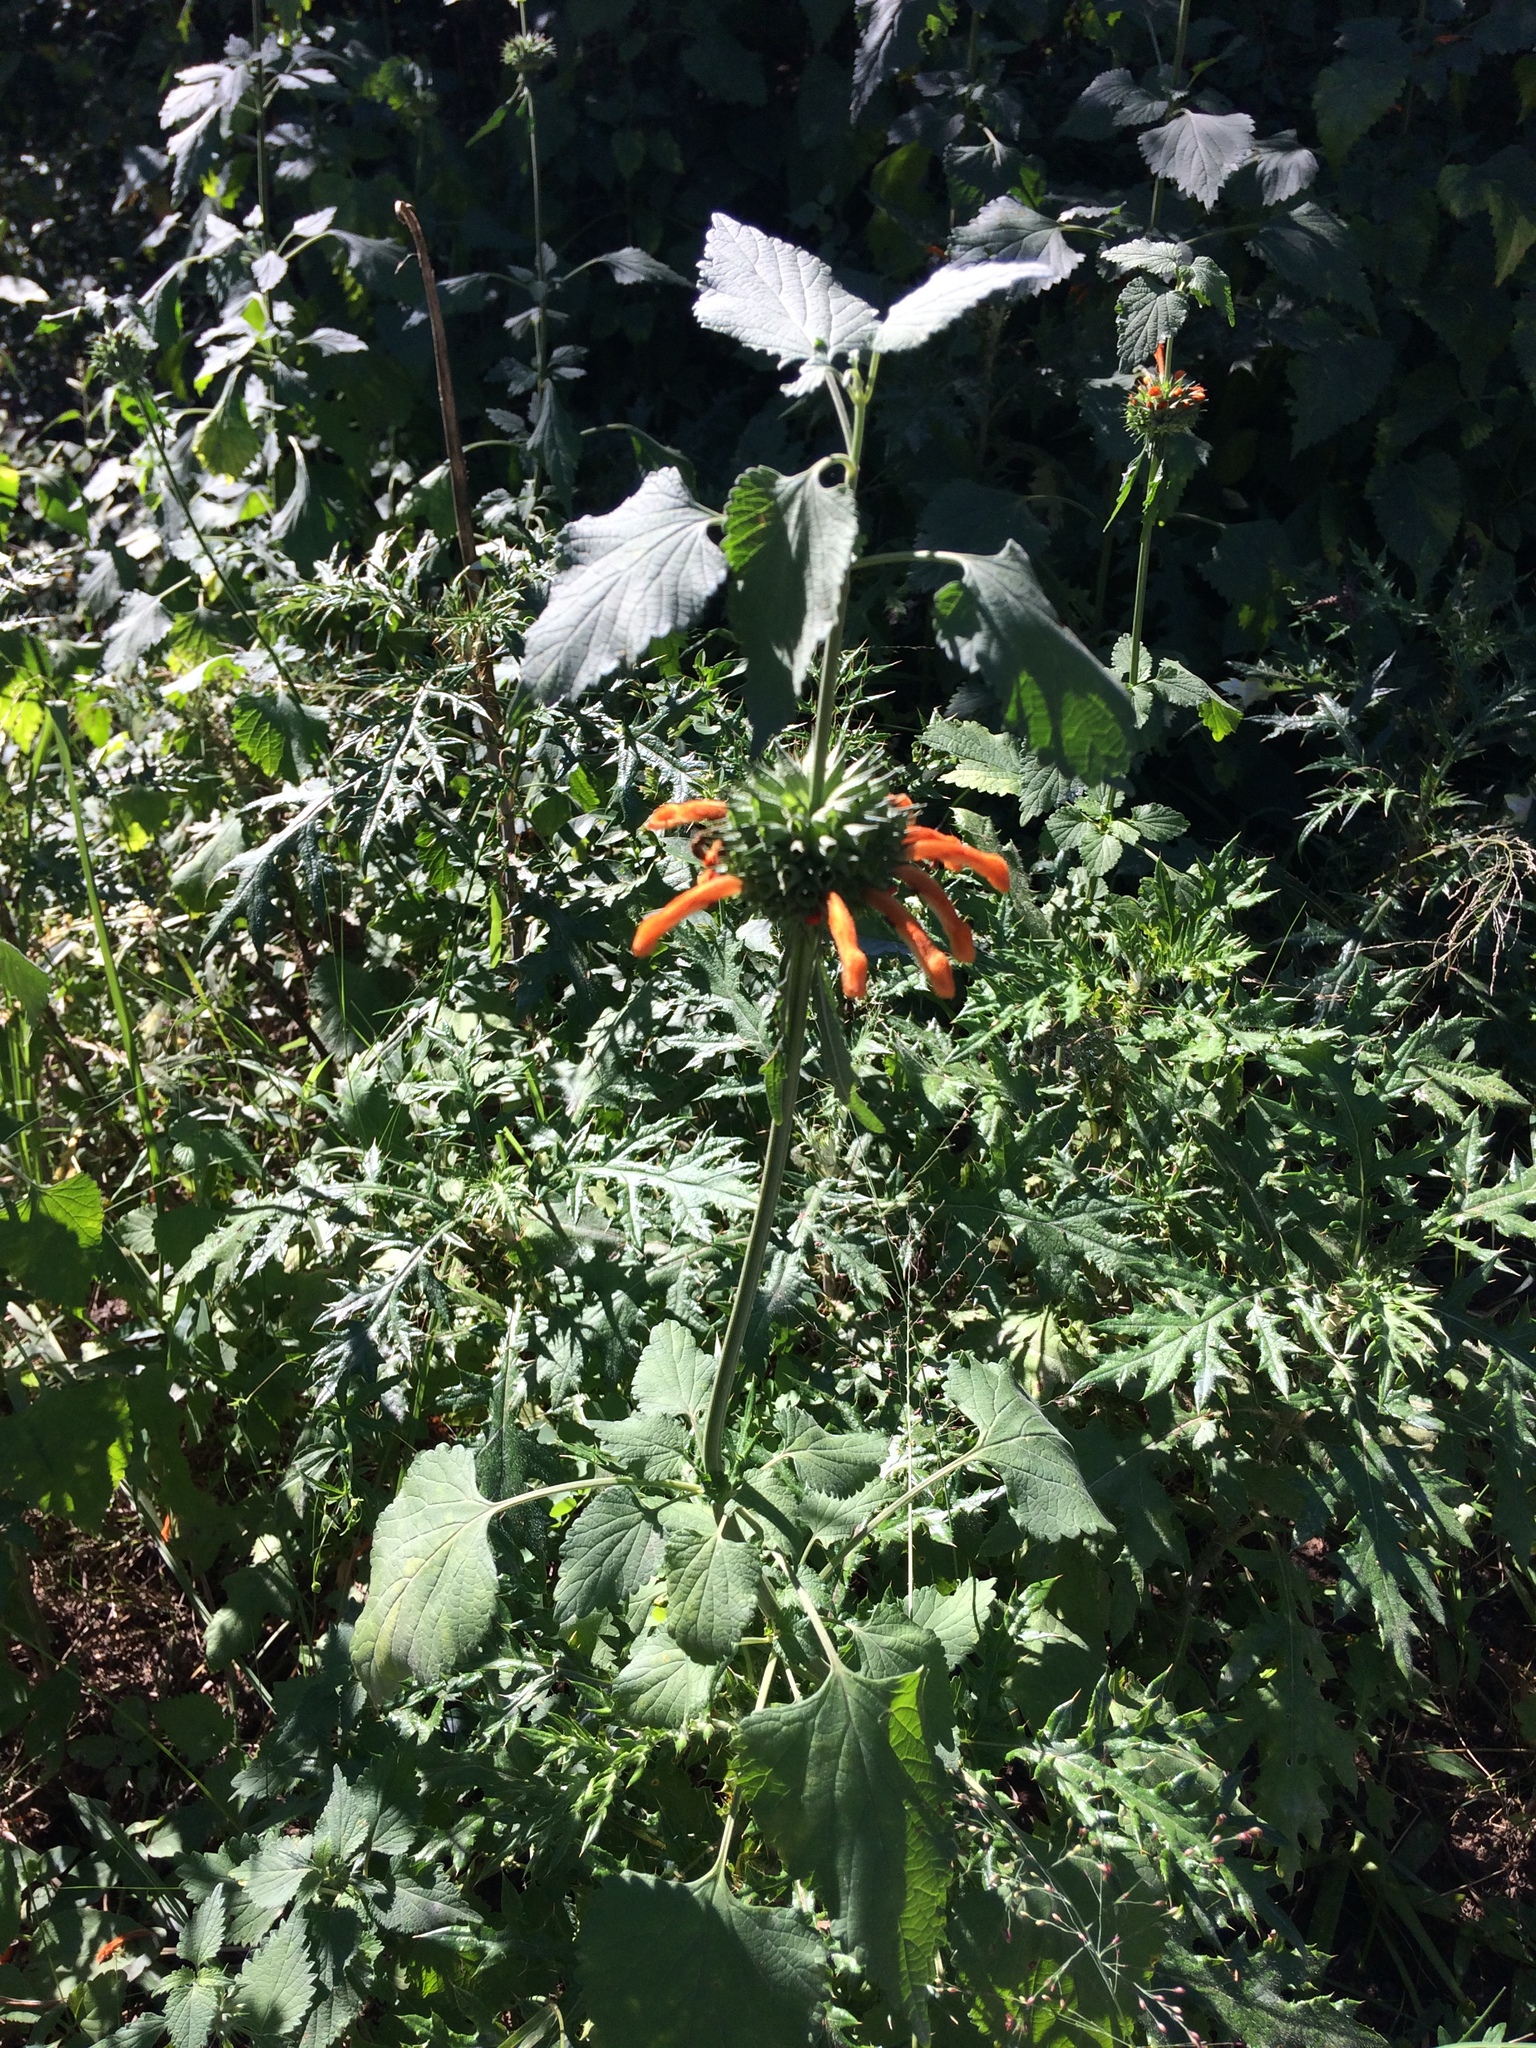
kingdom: Plantae
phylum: Tracheophyta
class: Magnoliopsida
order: Lamiales
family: Lamiaceae
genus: Leonotis
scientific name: Leonotis ocymifolia
